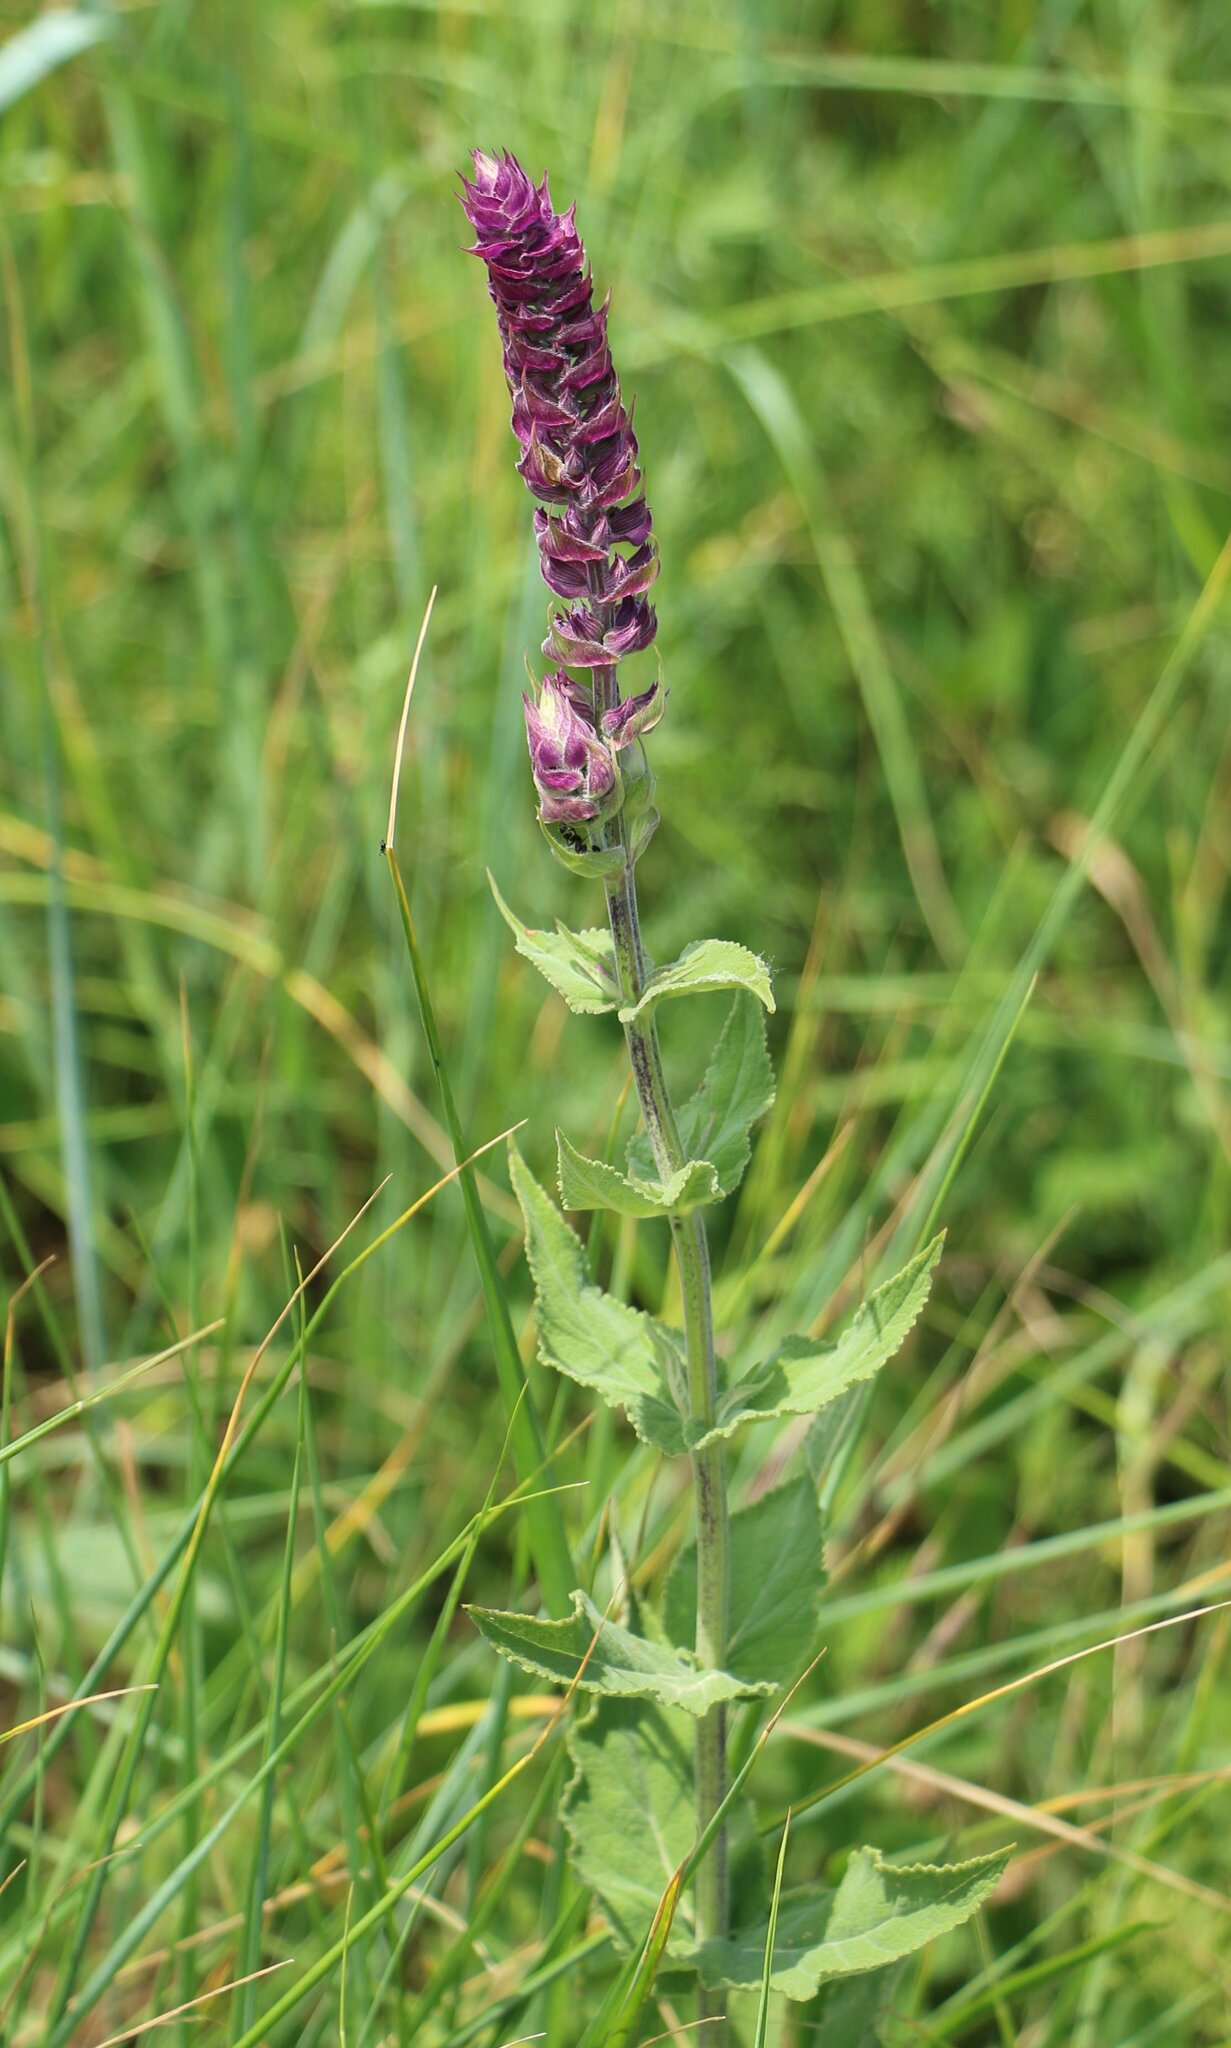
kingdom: Plantae
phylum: Tracheophyta
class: Magnoliopsida
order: Lamiales
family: Lamiaceae
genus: Salvia
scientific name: Salvia nemorosa
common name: Balkan clary
